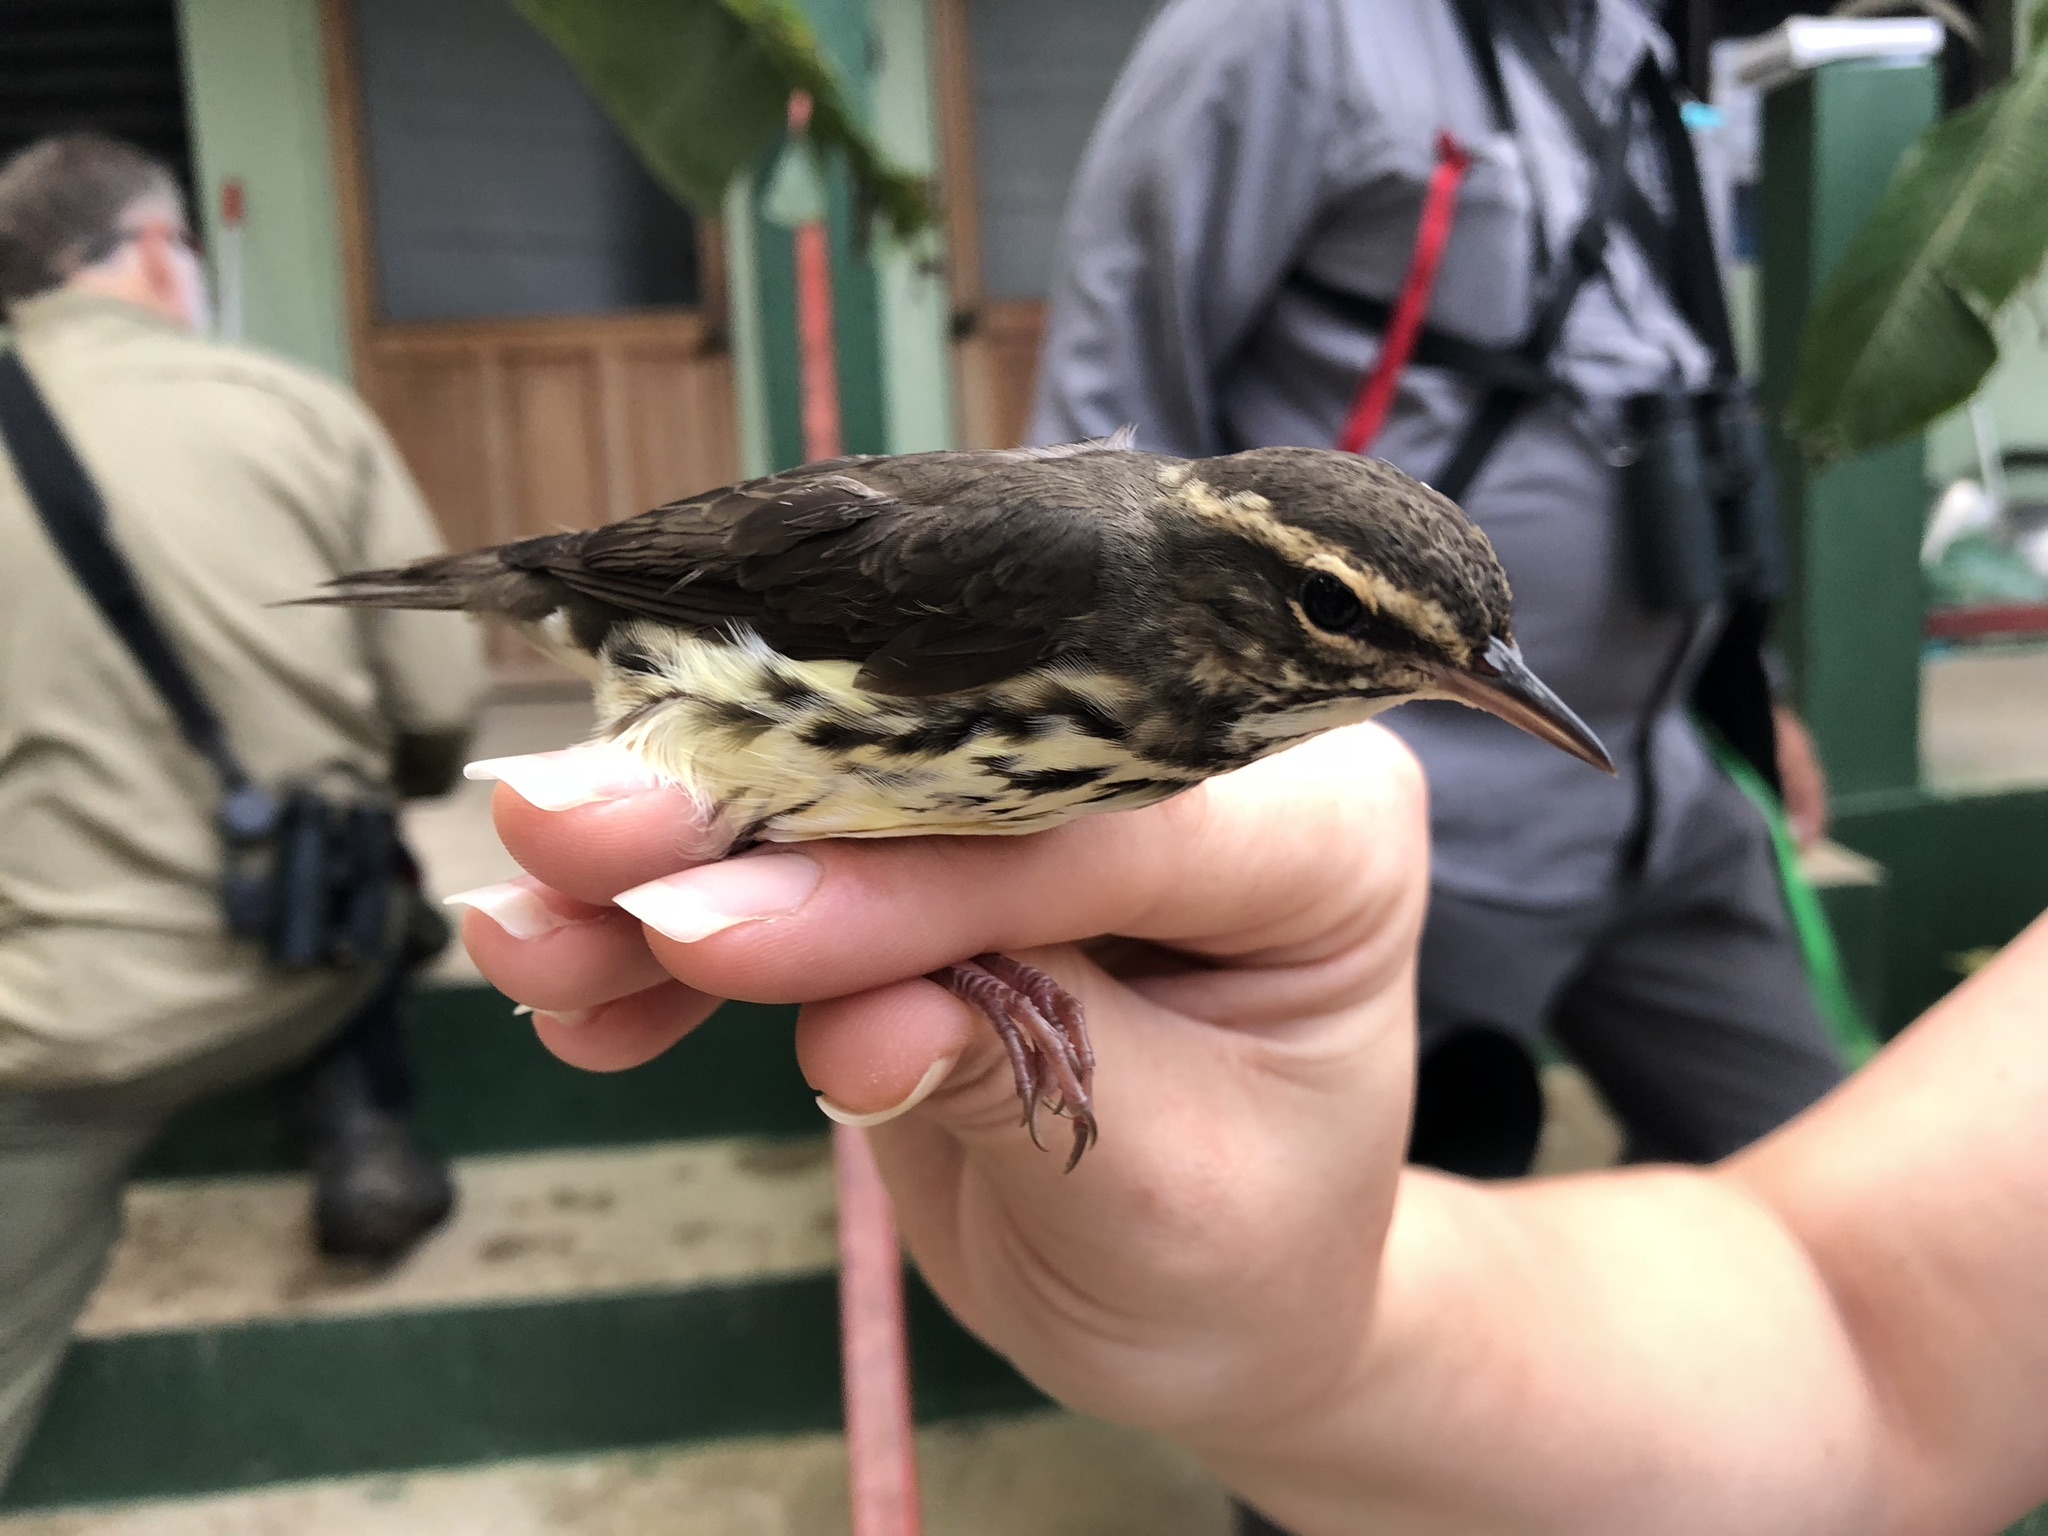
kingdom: Animalia
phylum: Chordata
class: Aves
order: Passeriformes
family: Parulidae
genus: Parkesia
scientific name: Parkesia noveboracensis
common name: Northern waterthrush
